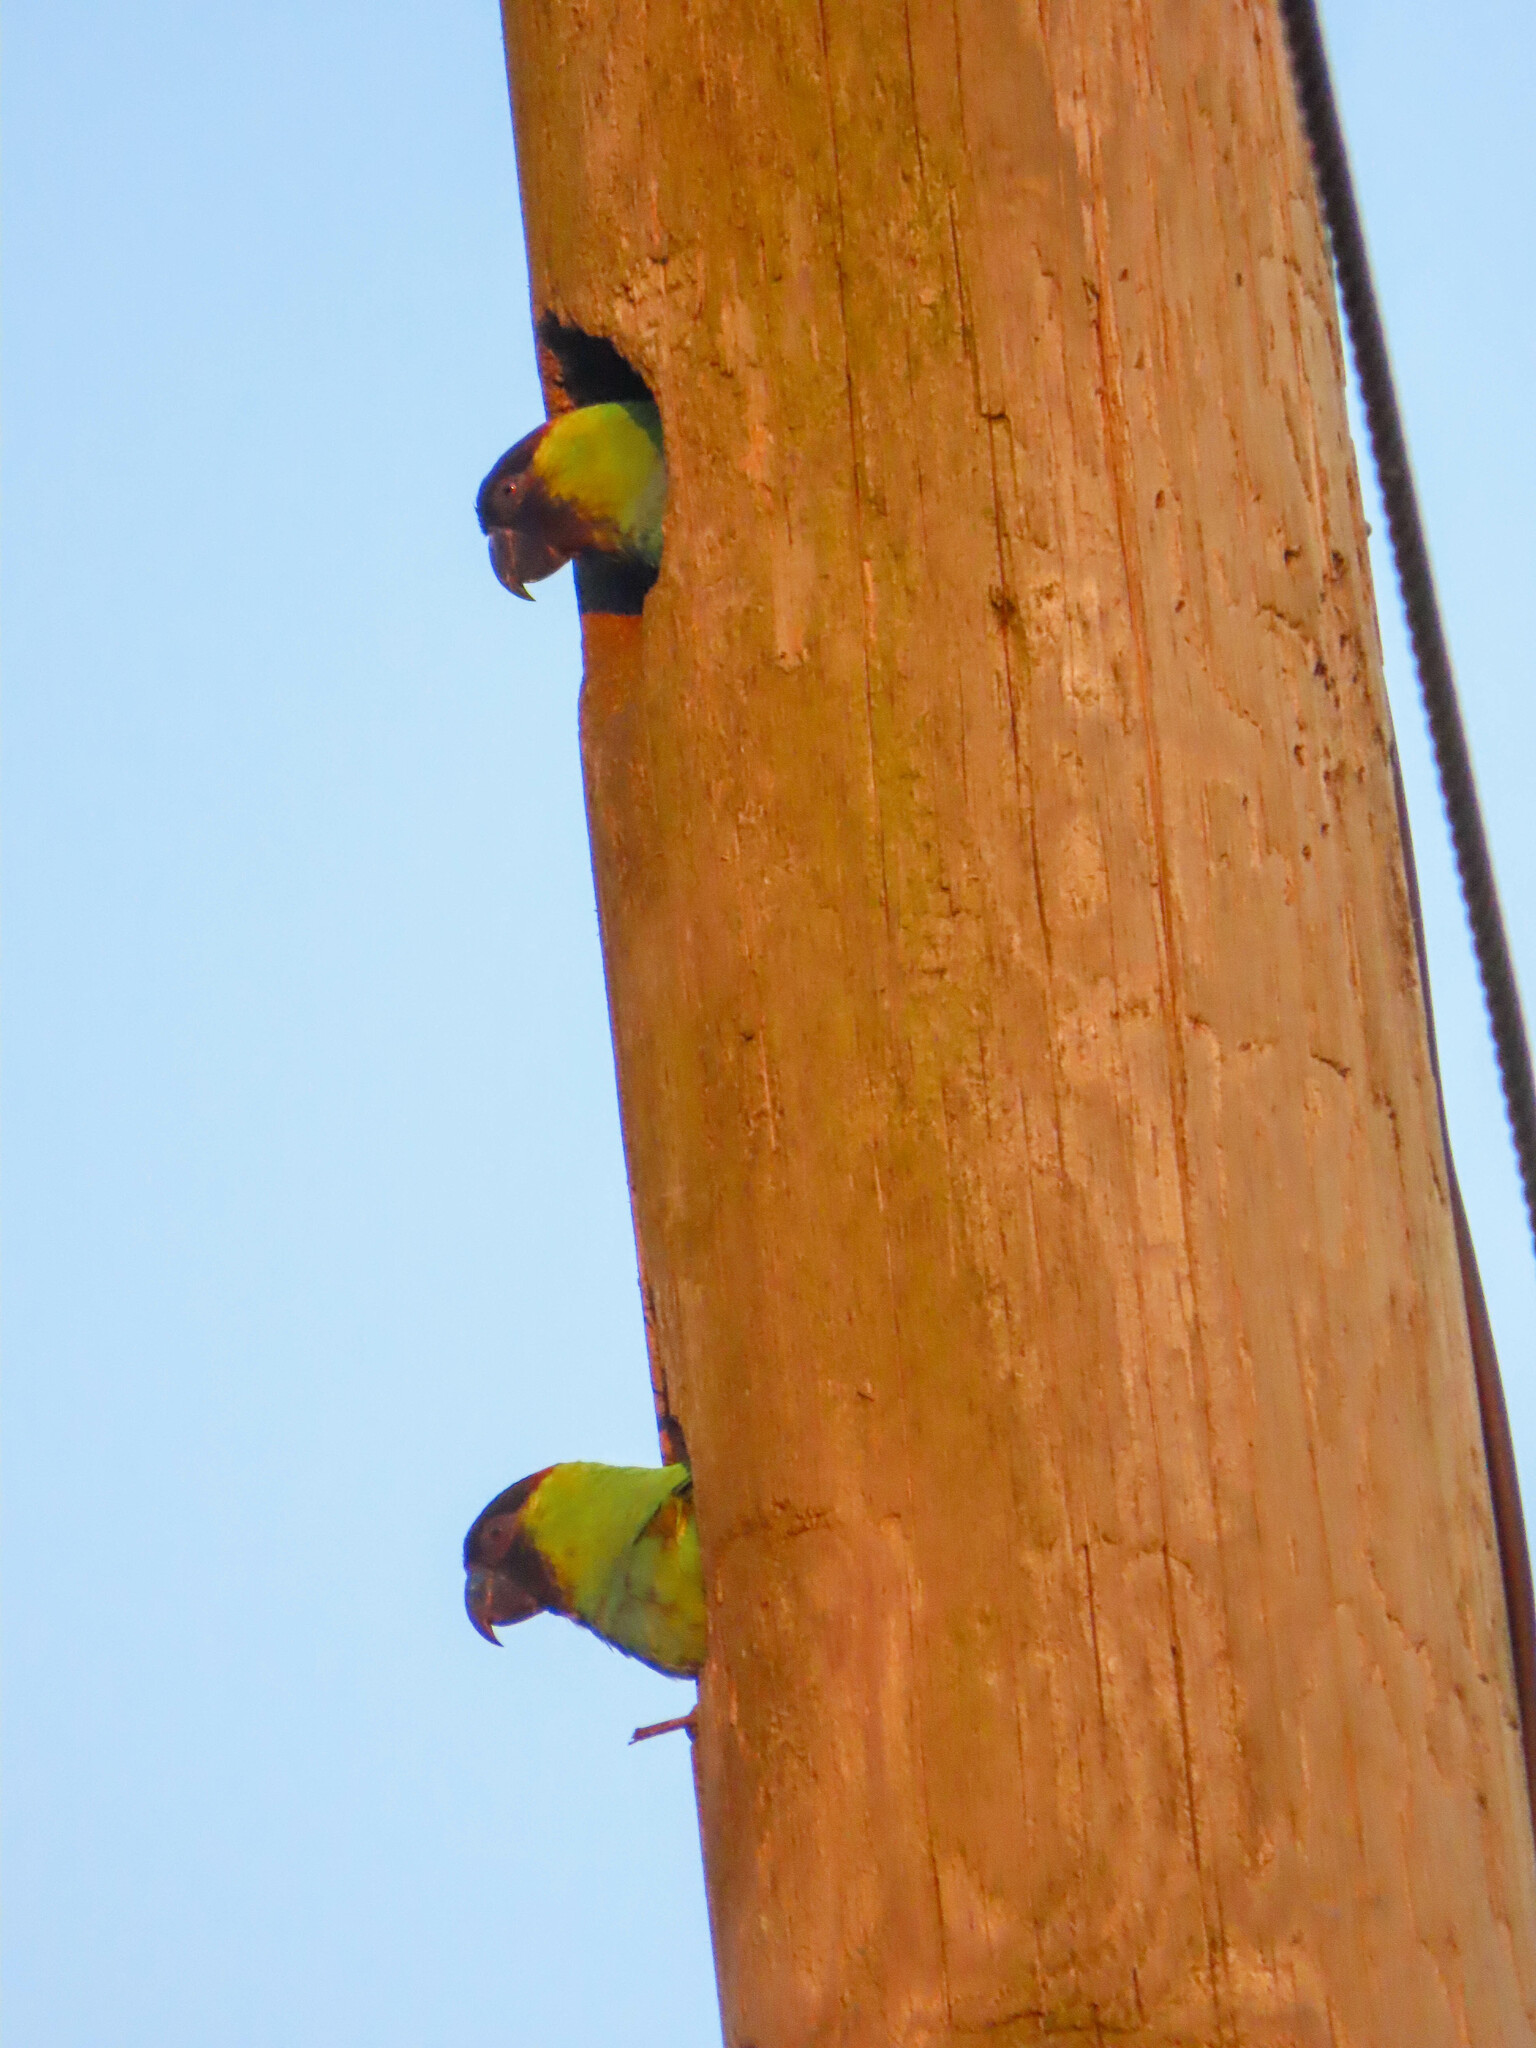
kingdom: Animalia
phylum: Chordata
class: Aves
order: Psittaciformes
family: Psittacidae
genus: Nandayus
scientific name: Nandayus nenday
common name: Nanday parakeet
